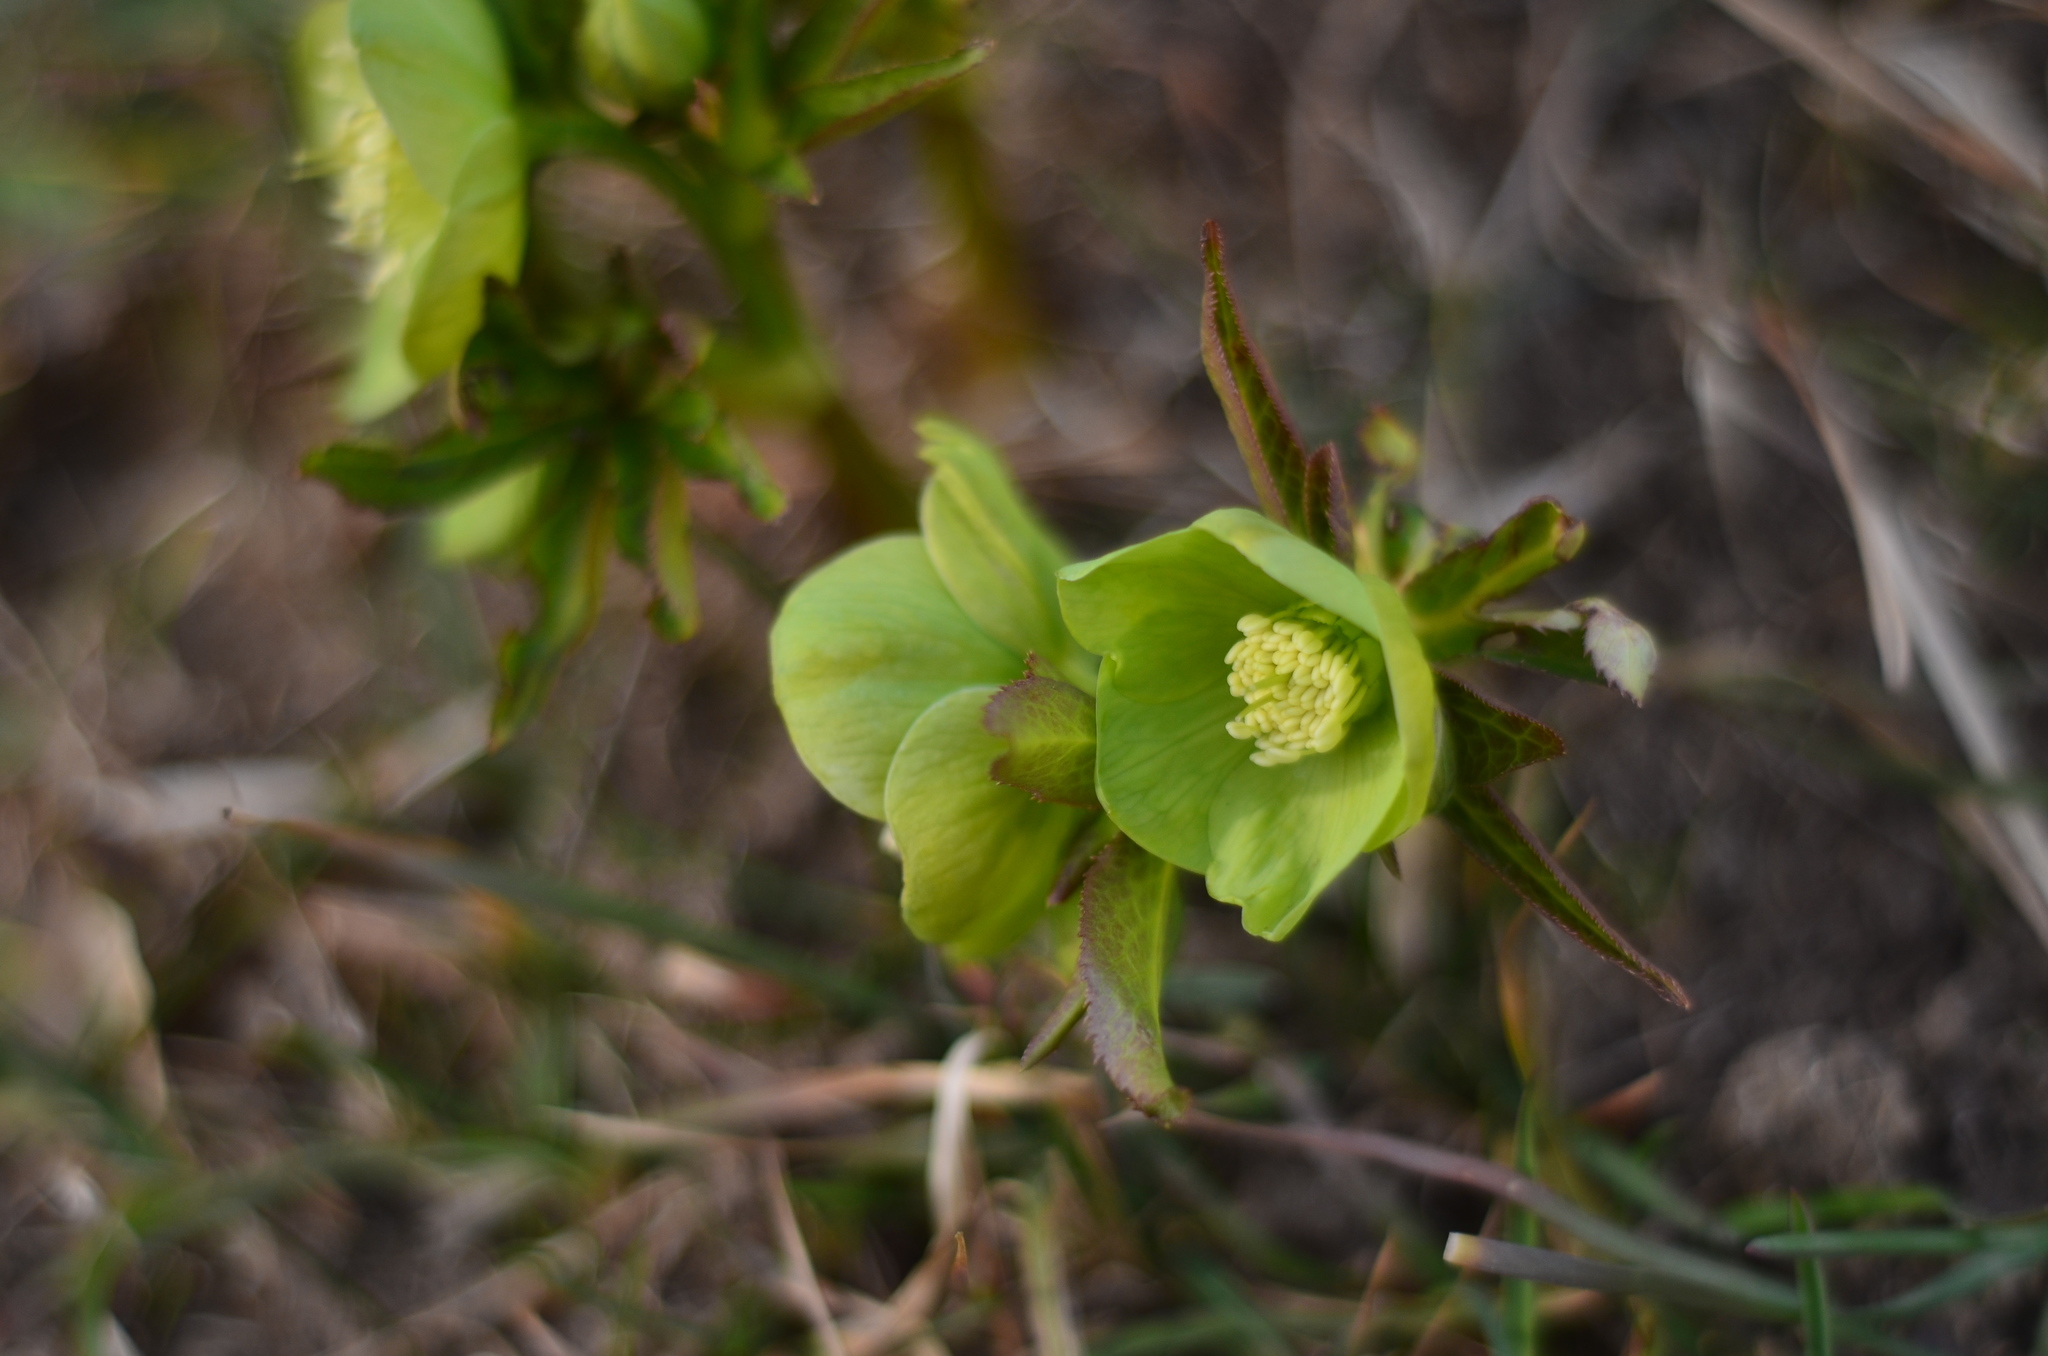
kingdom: Plantae
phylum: Tracheophyta
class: Magnoliopsida
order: Ranunculales
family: Ranunculaceae
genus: Helleborus
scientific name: Helleborus viridis
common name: Green hellebore
